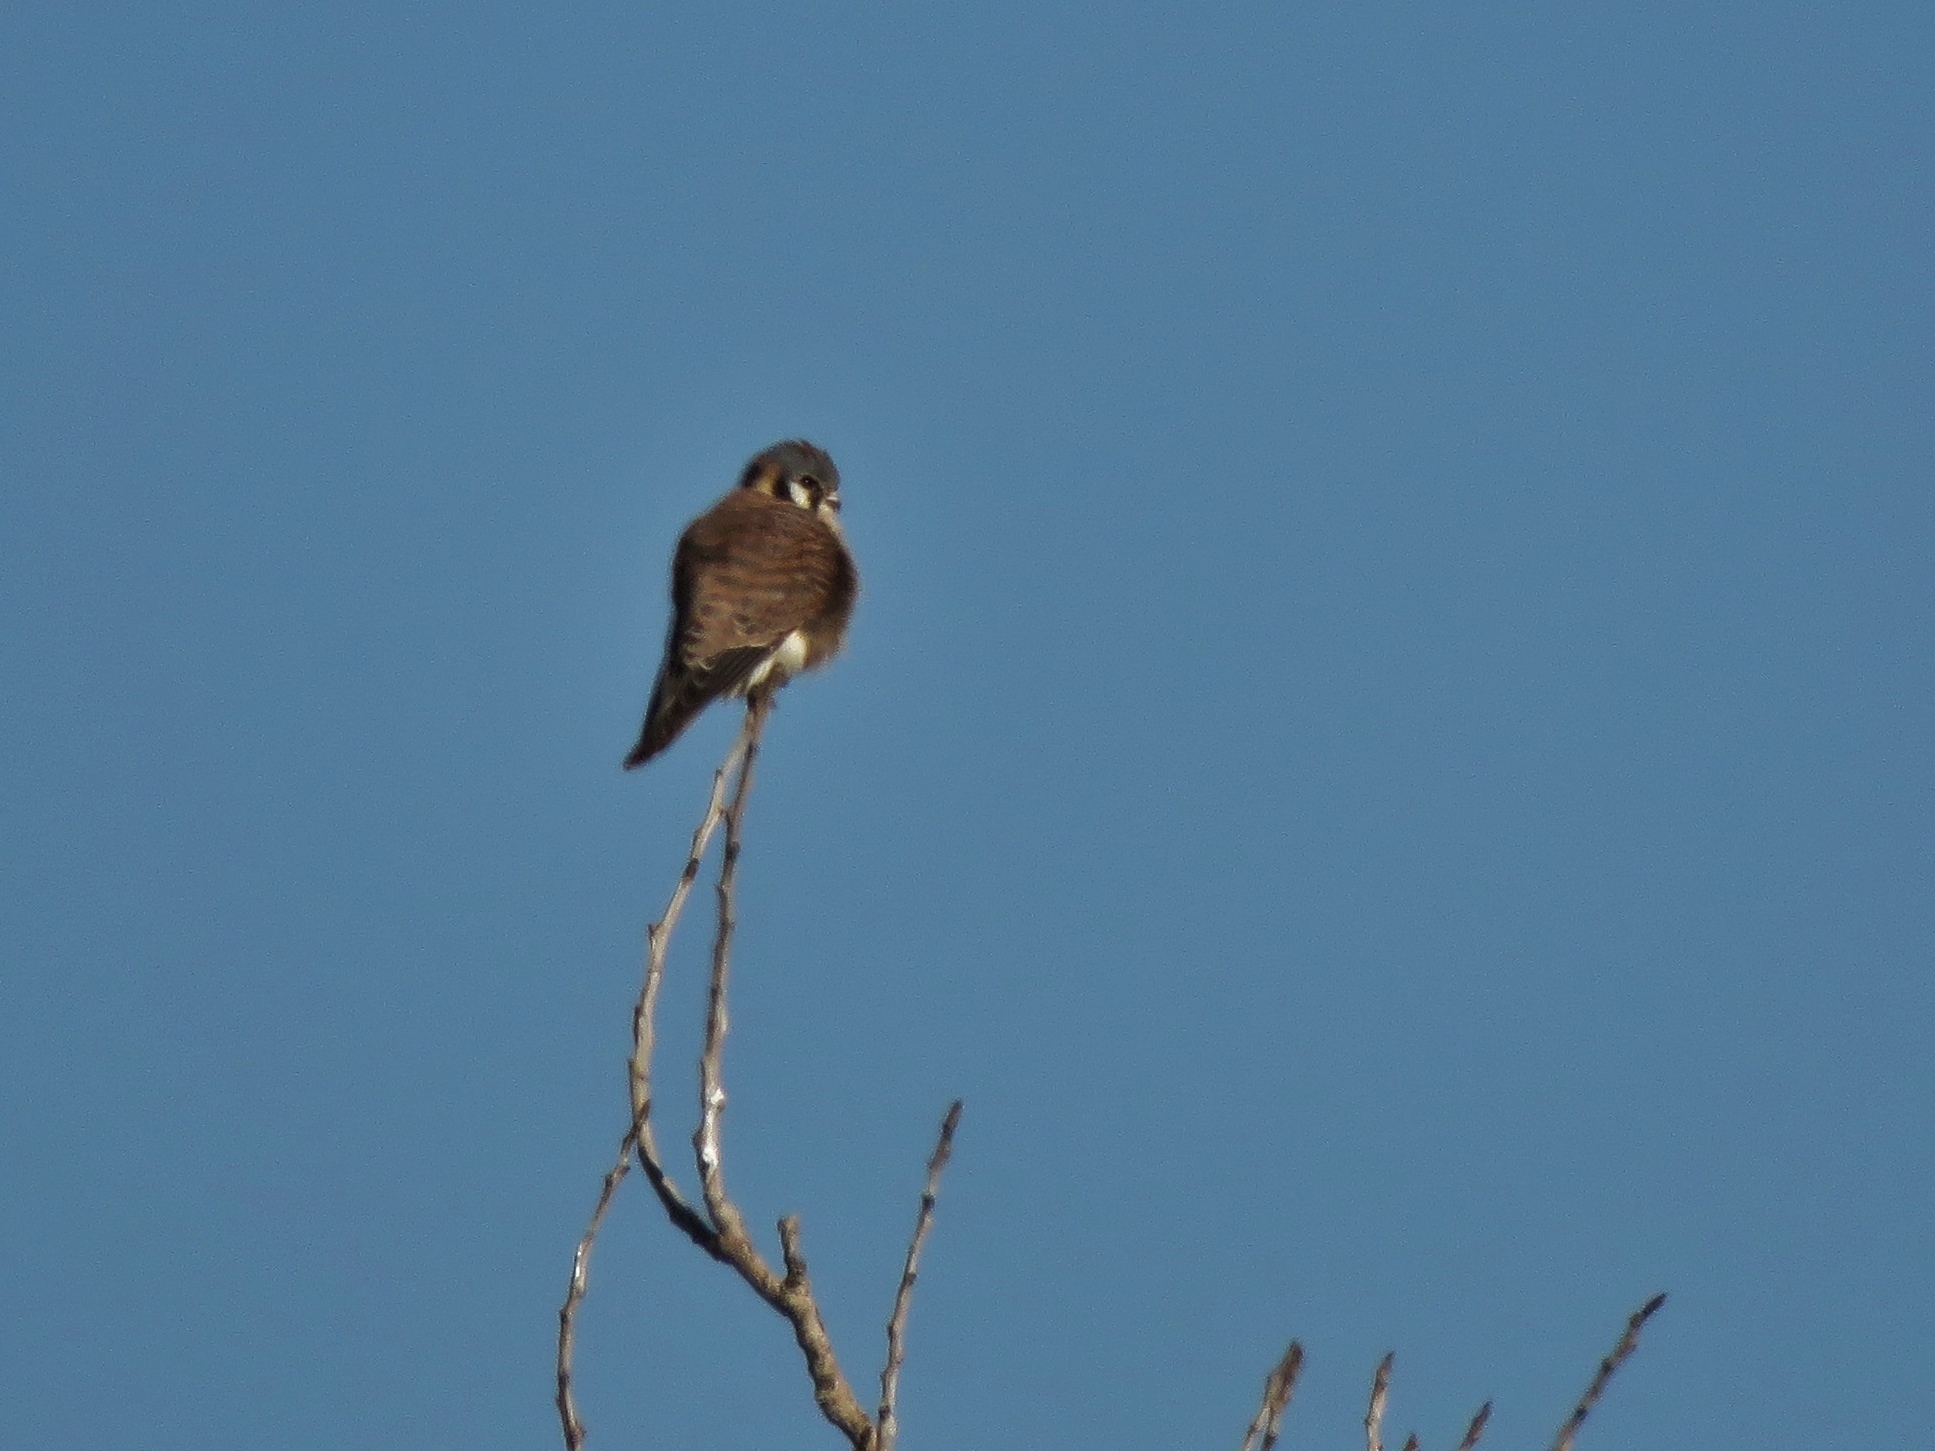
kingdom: Animalia
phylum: Chordata
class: Aves
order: Falconiformes
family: Falconidae
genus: Falco
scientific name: Falco sparverius
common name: American kestrel
